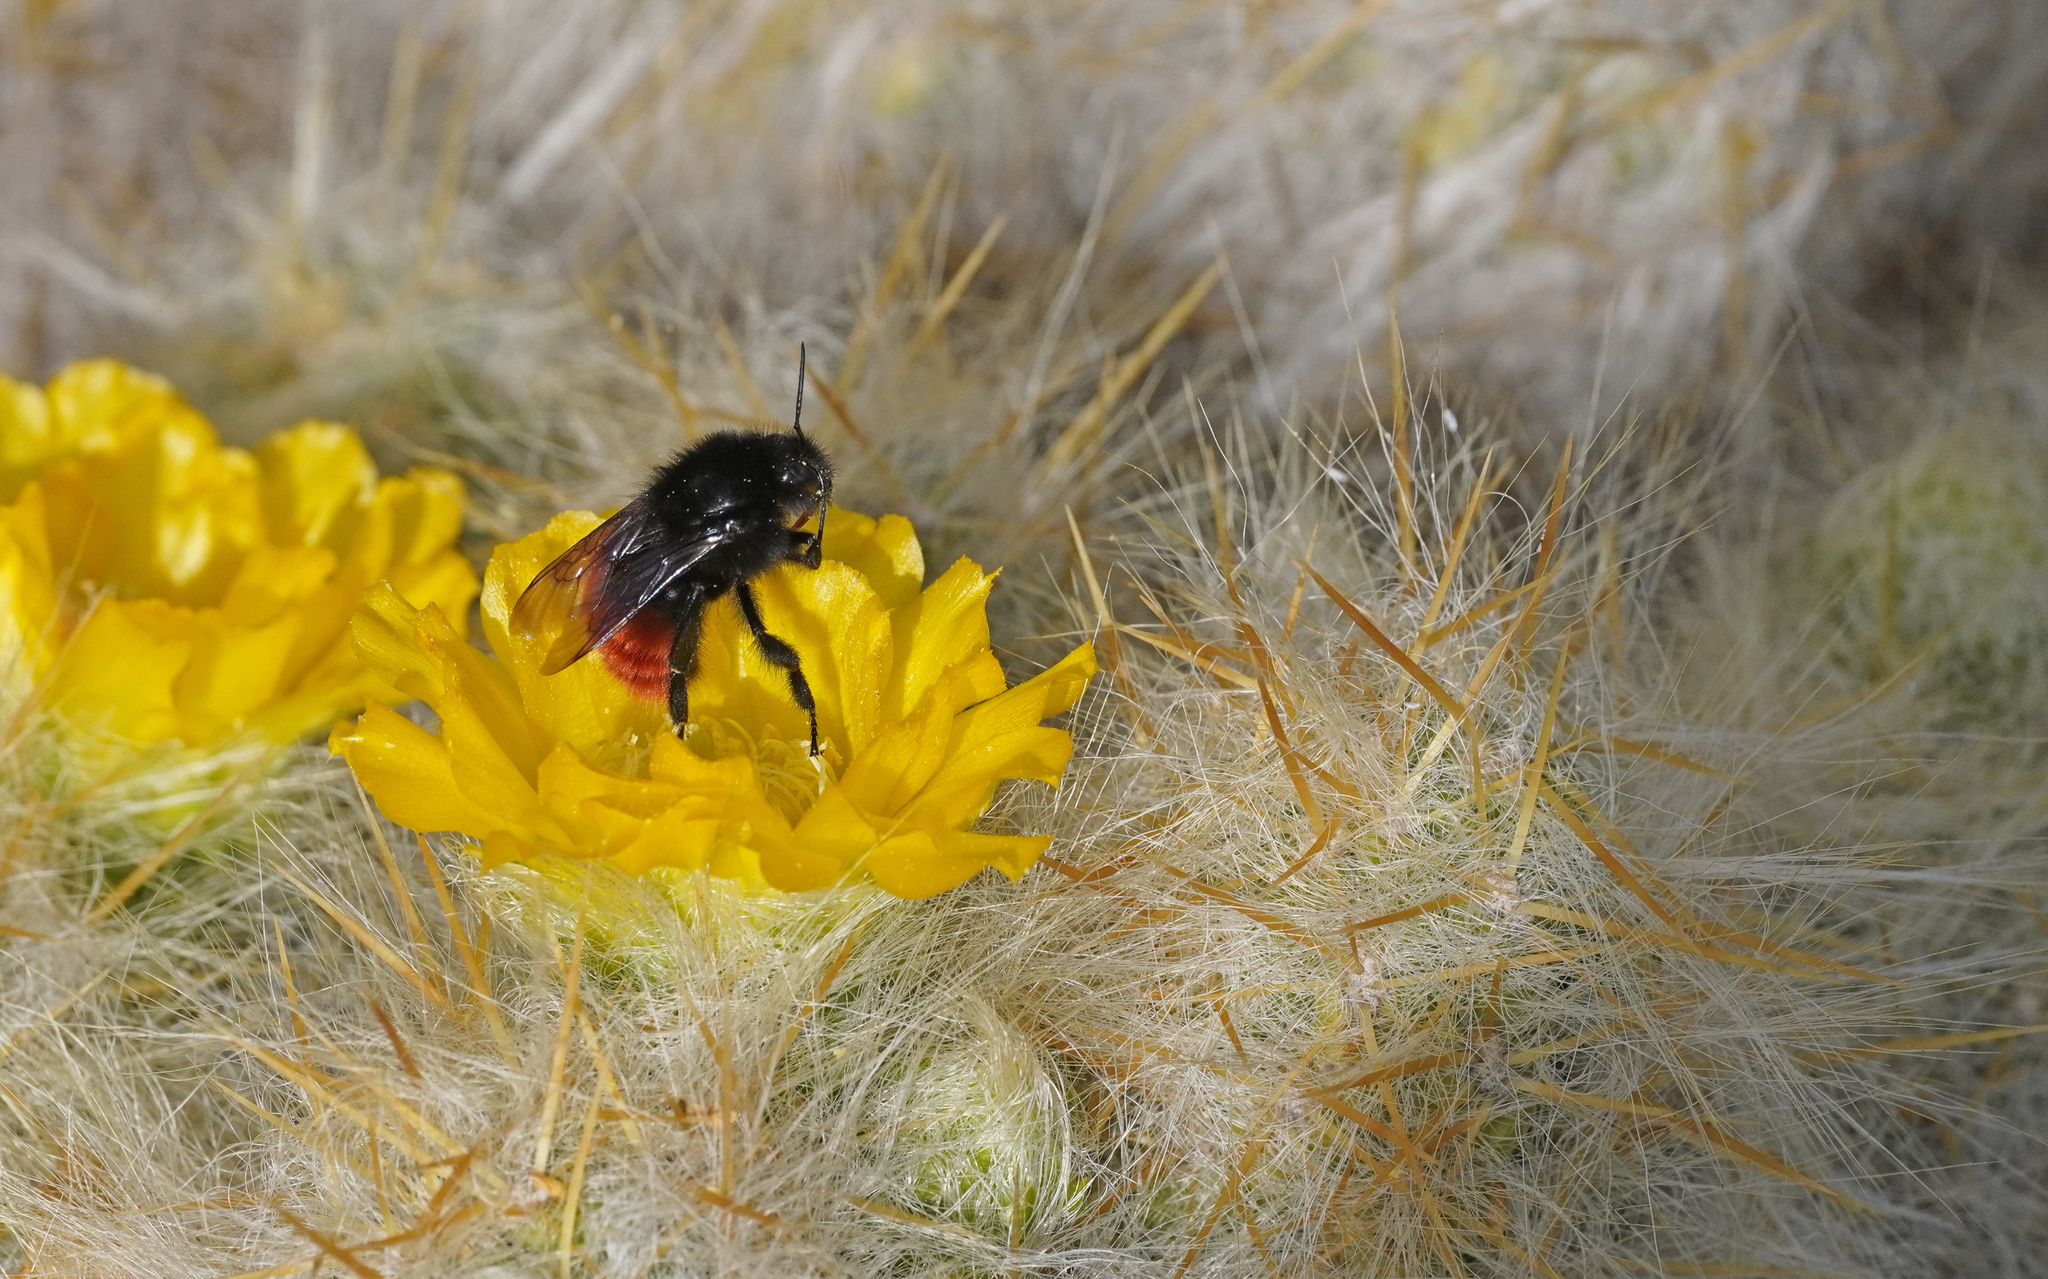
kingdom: Animalia
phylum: Arthropoda
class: Insecta
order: Hymenoptera
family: Apidae
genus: Bombus
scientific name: Bombus coccineus
